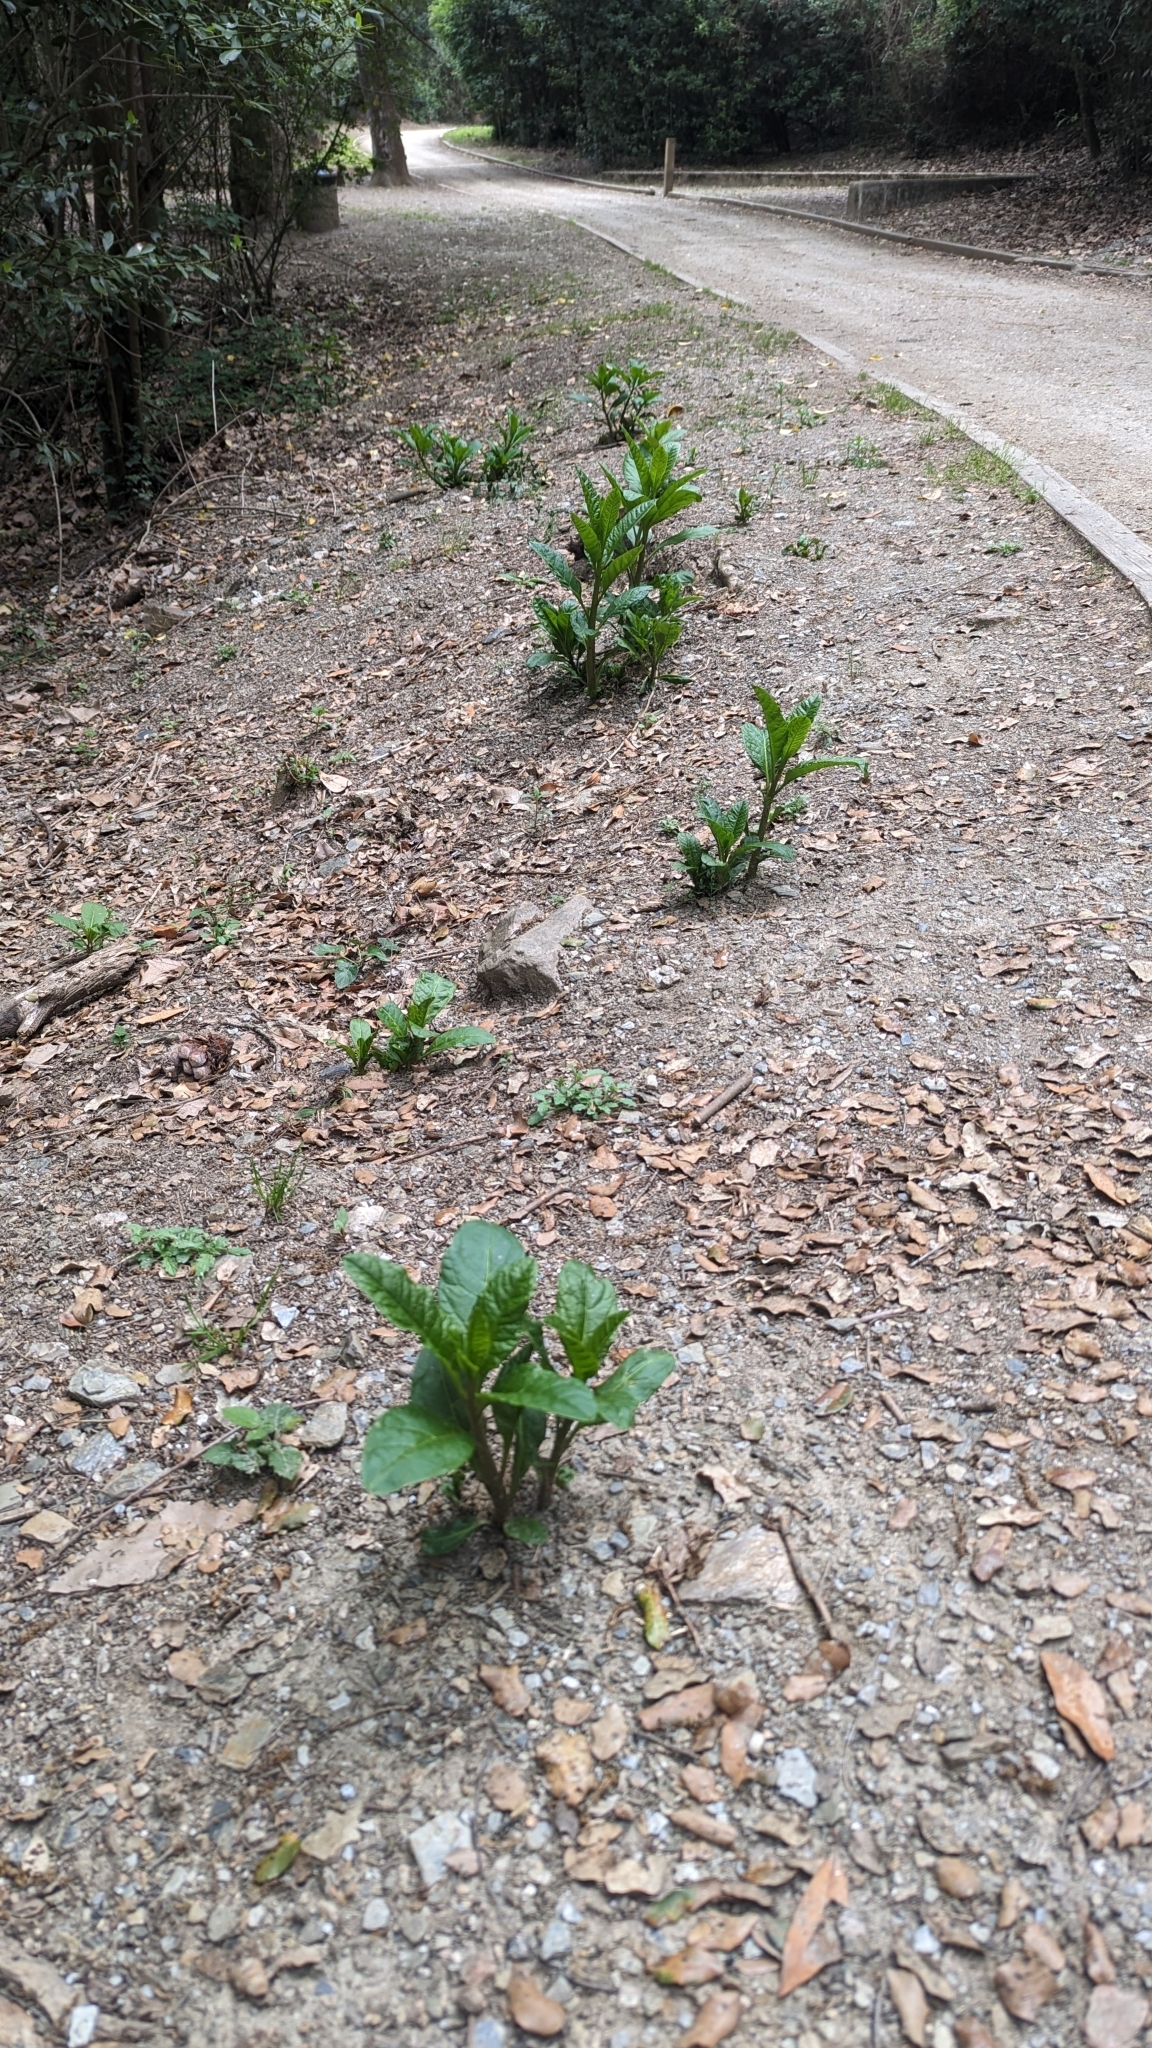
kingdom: Plantae
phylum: Tracheophyta
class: Magnoliopsida
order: Caryophyllales
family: Phytolaccaceae
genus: Phytolacca
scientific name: Phytolacca americana
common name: American pokeweed
